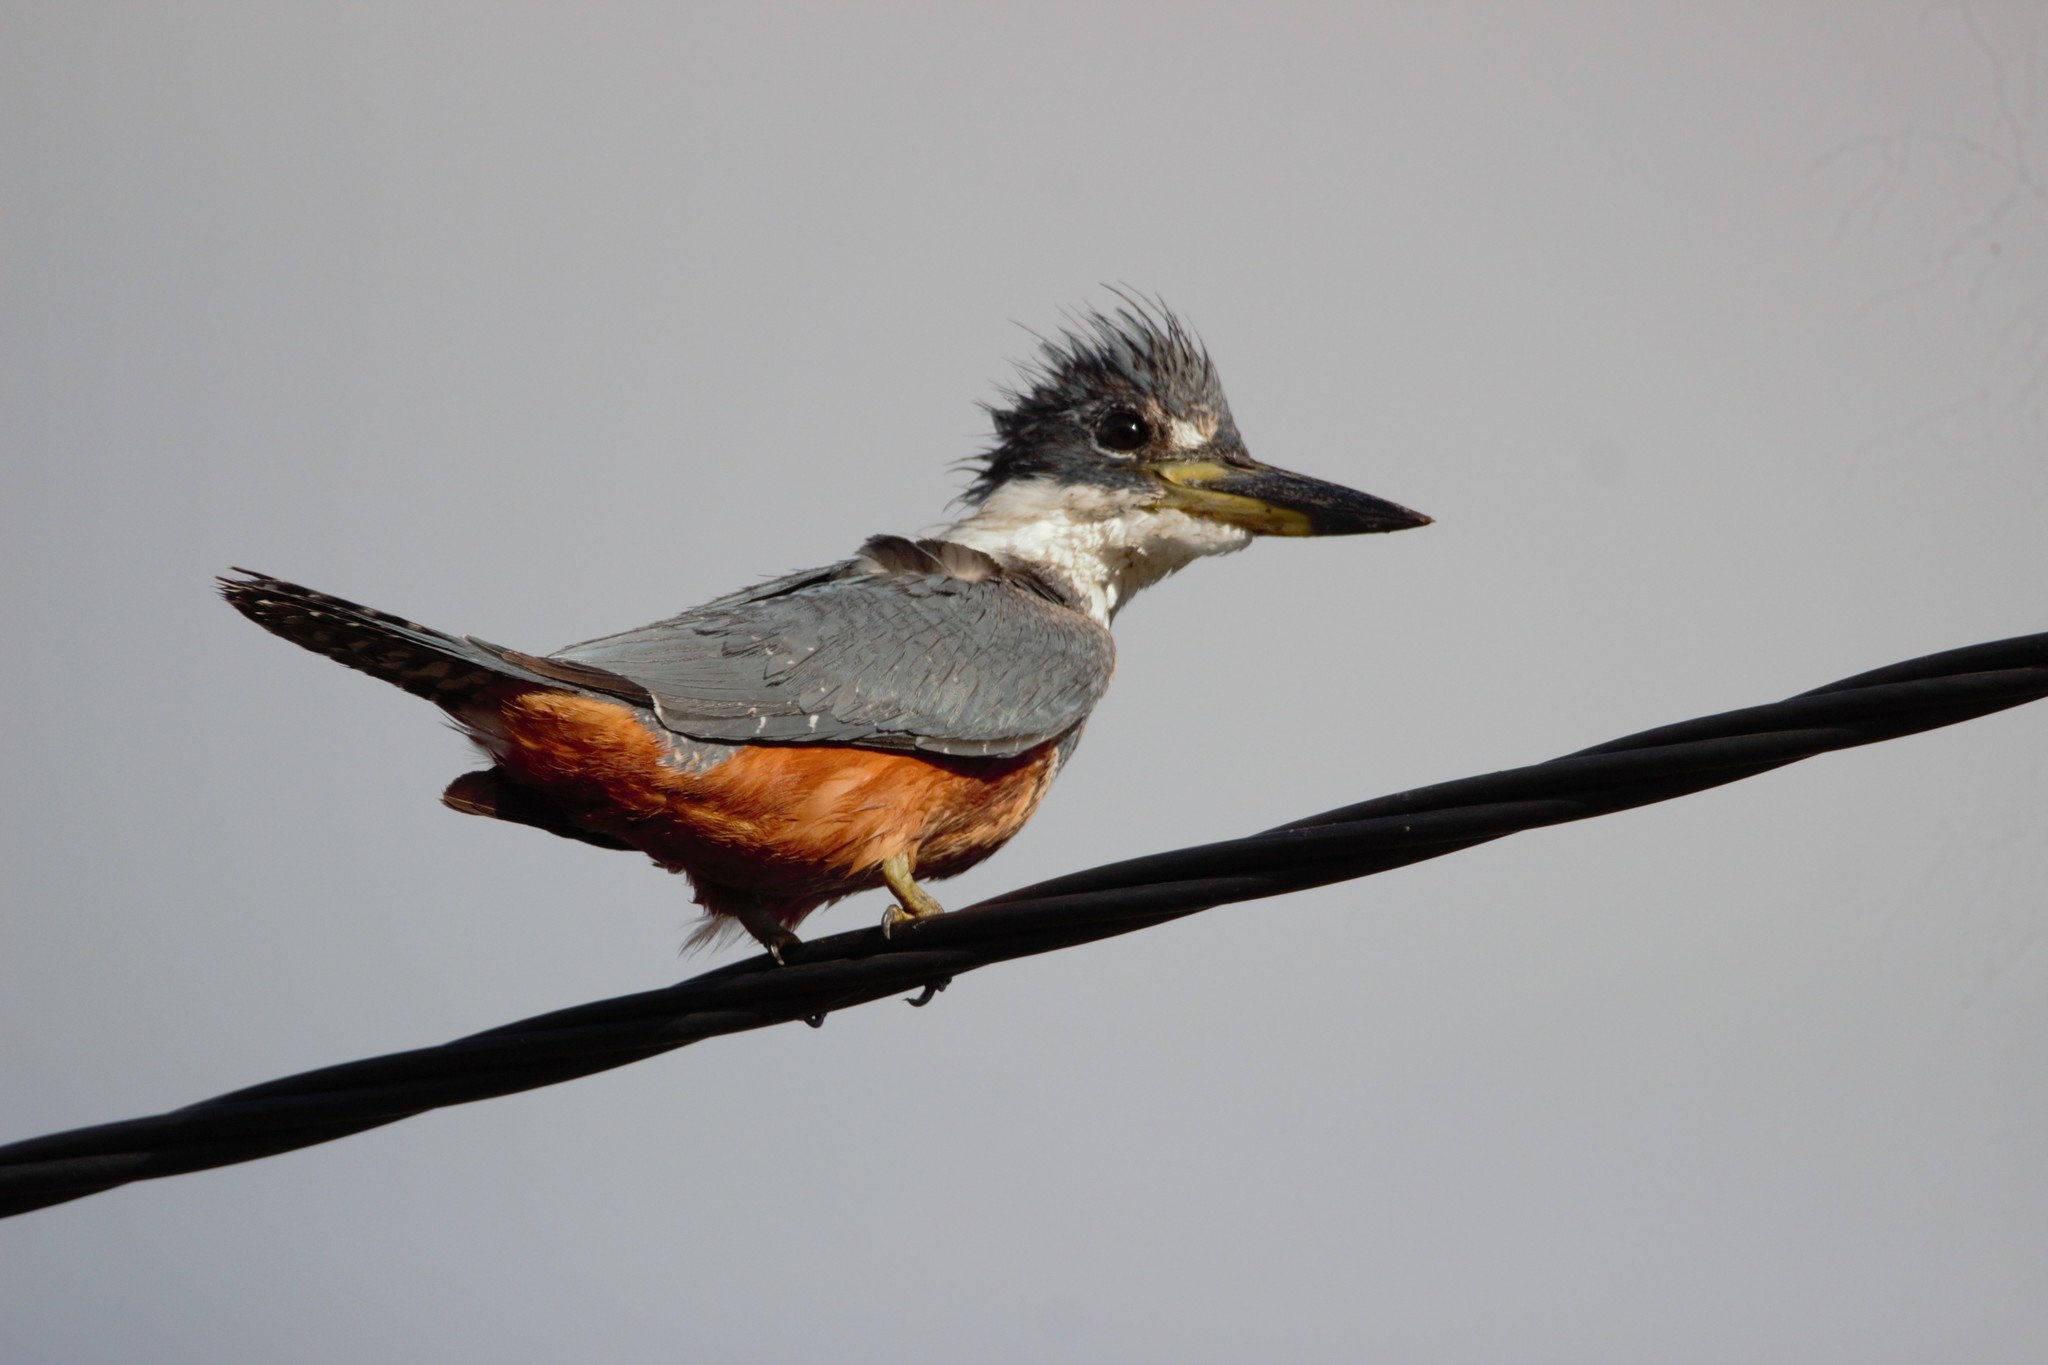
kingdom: Animalia
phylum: Chordata
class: Aves
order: Coraciiformes
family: Alcedinidae
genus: Megaceryle
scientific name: Megaceryle torquata
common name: Ringed kingfisher
